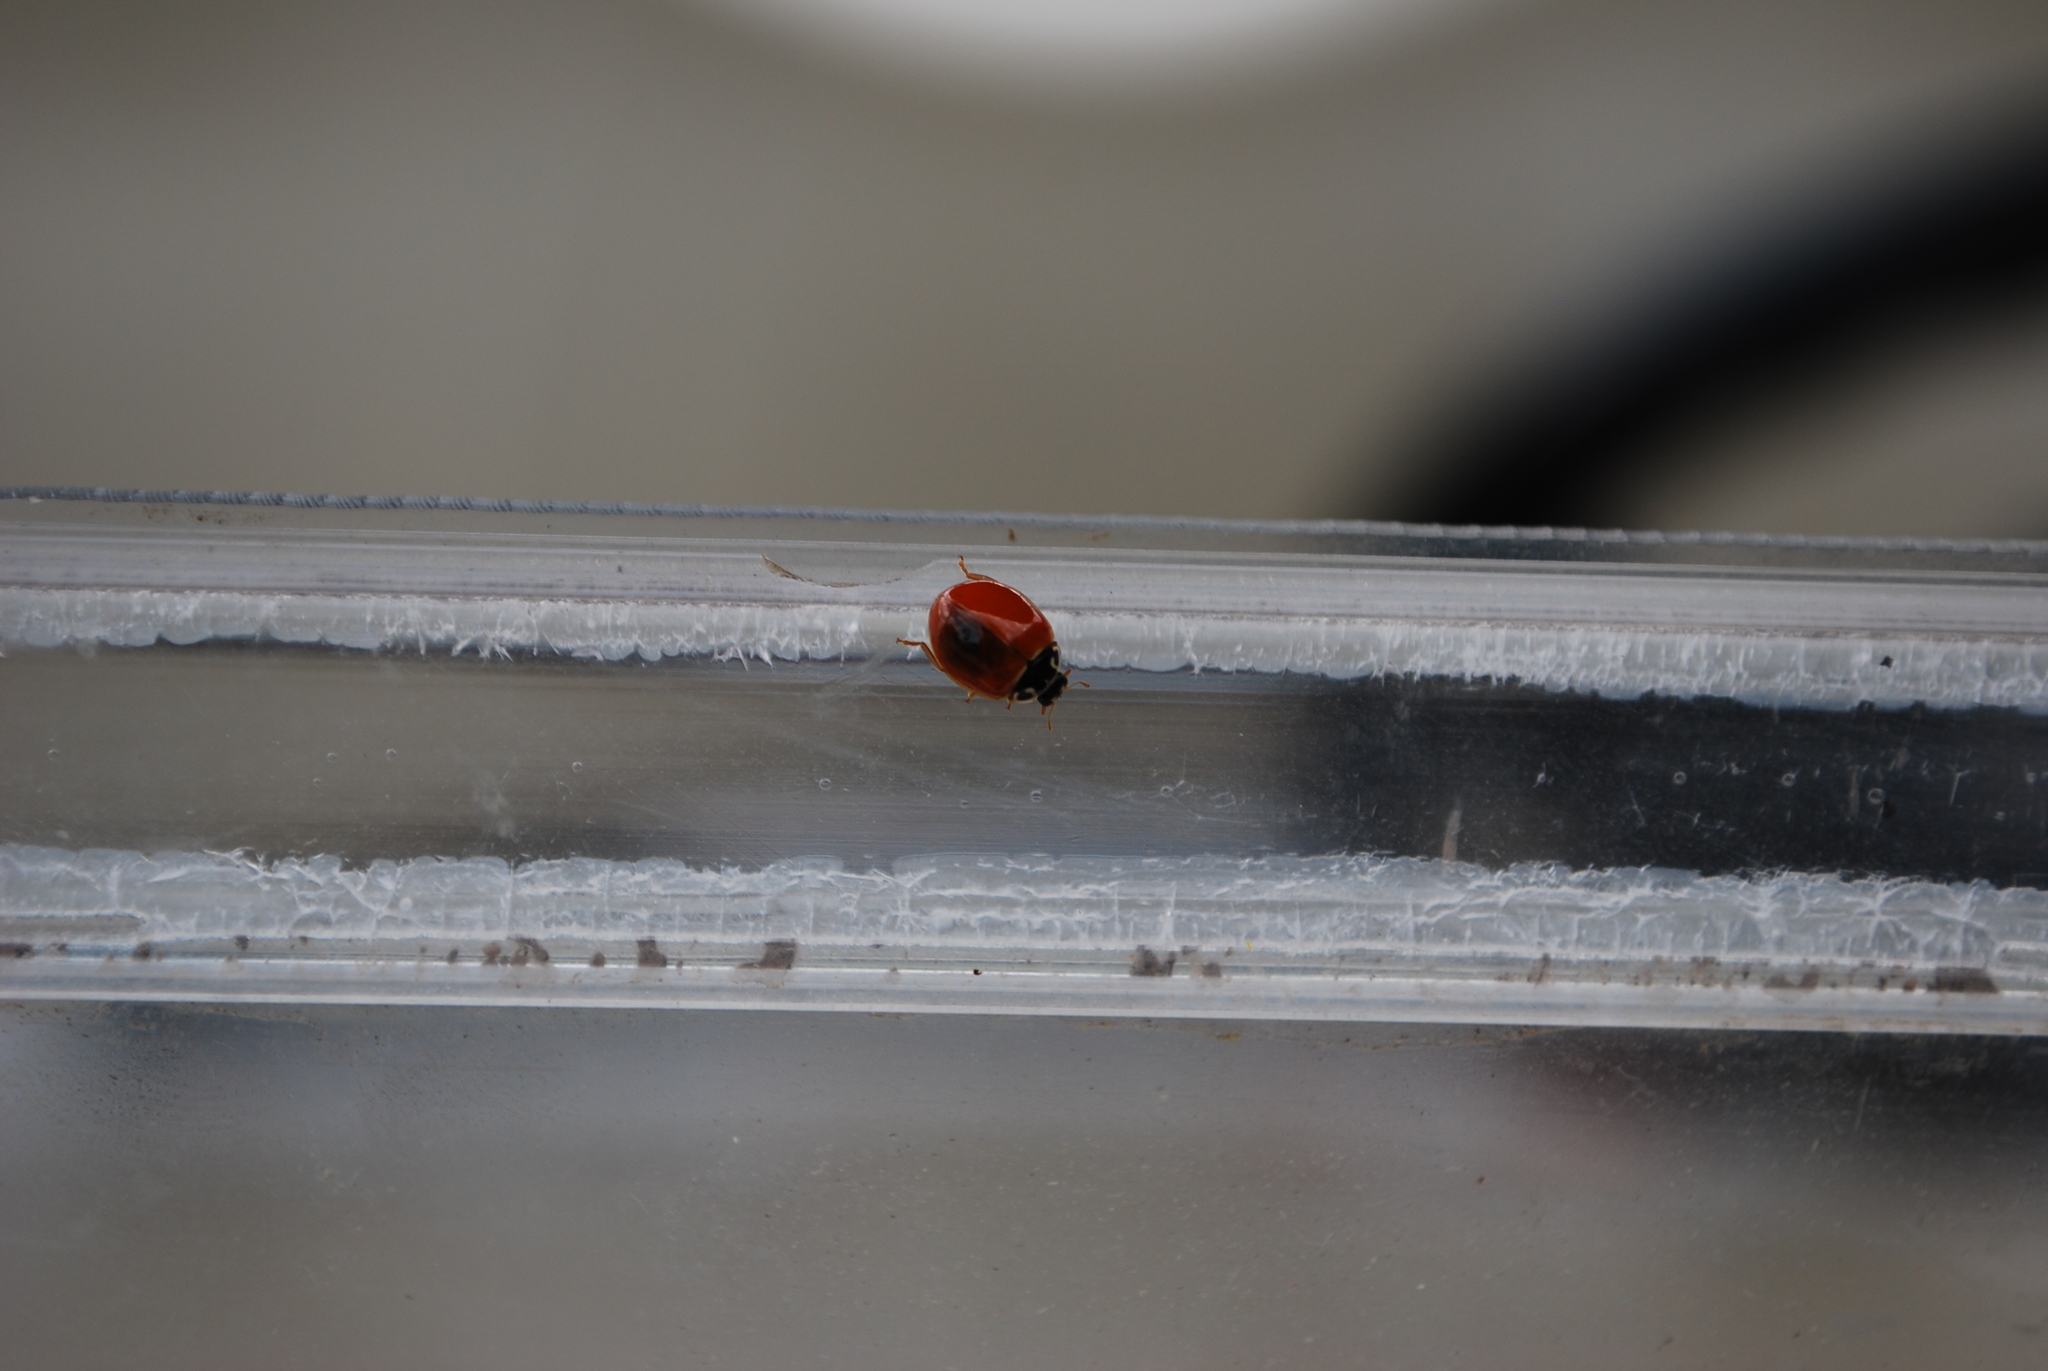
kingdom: Animalia
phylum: Arthropoda
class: Insecta
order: Coleoptera
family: Coccinellidae
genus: Cycloneda
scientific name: Cycloneda munda
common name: Polished lady beetle
